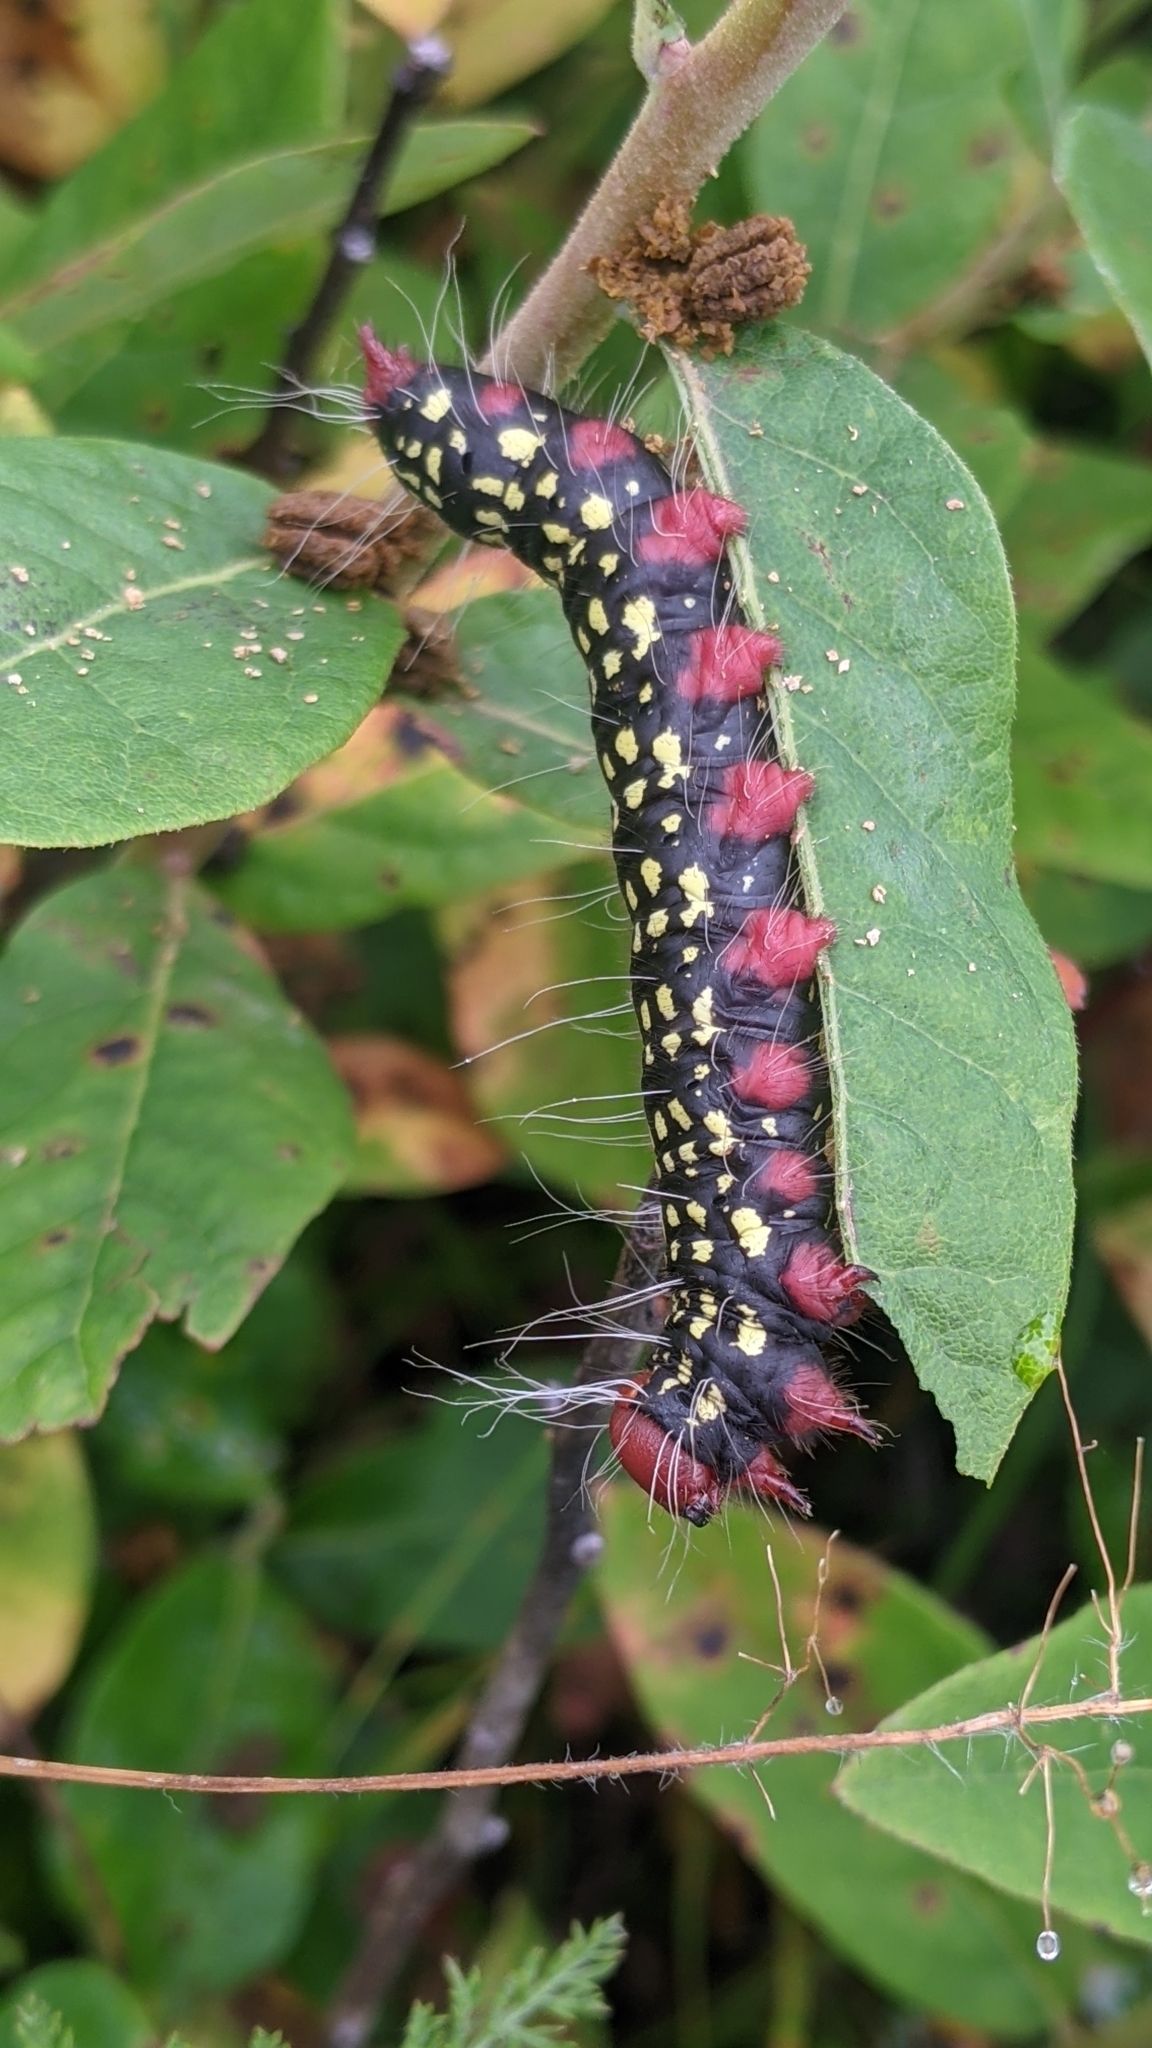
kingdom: Animalia
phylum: Arthropoda
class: Insecta
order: Lepidoptera
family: Notodontidae
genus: Datana
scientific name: Datana major
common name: Azalea caterpillar
